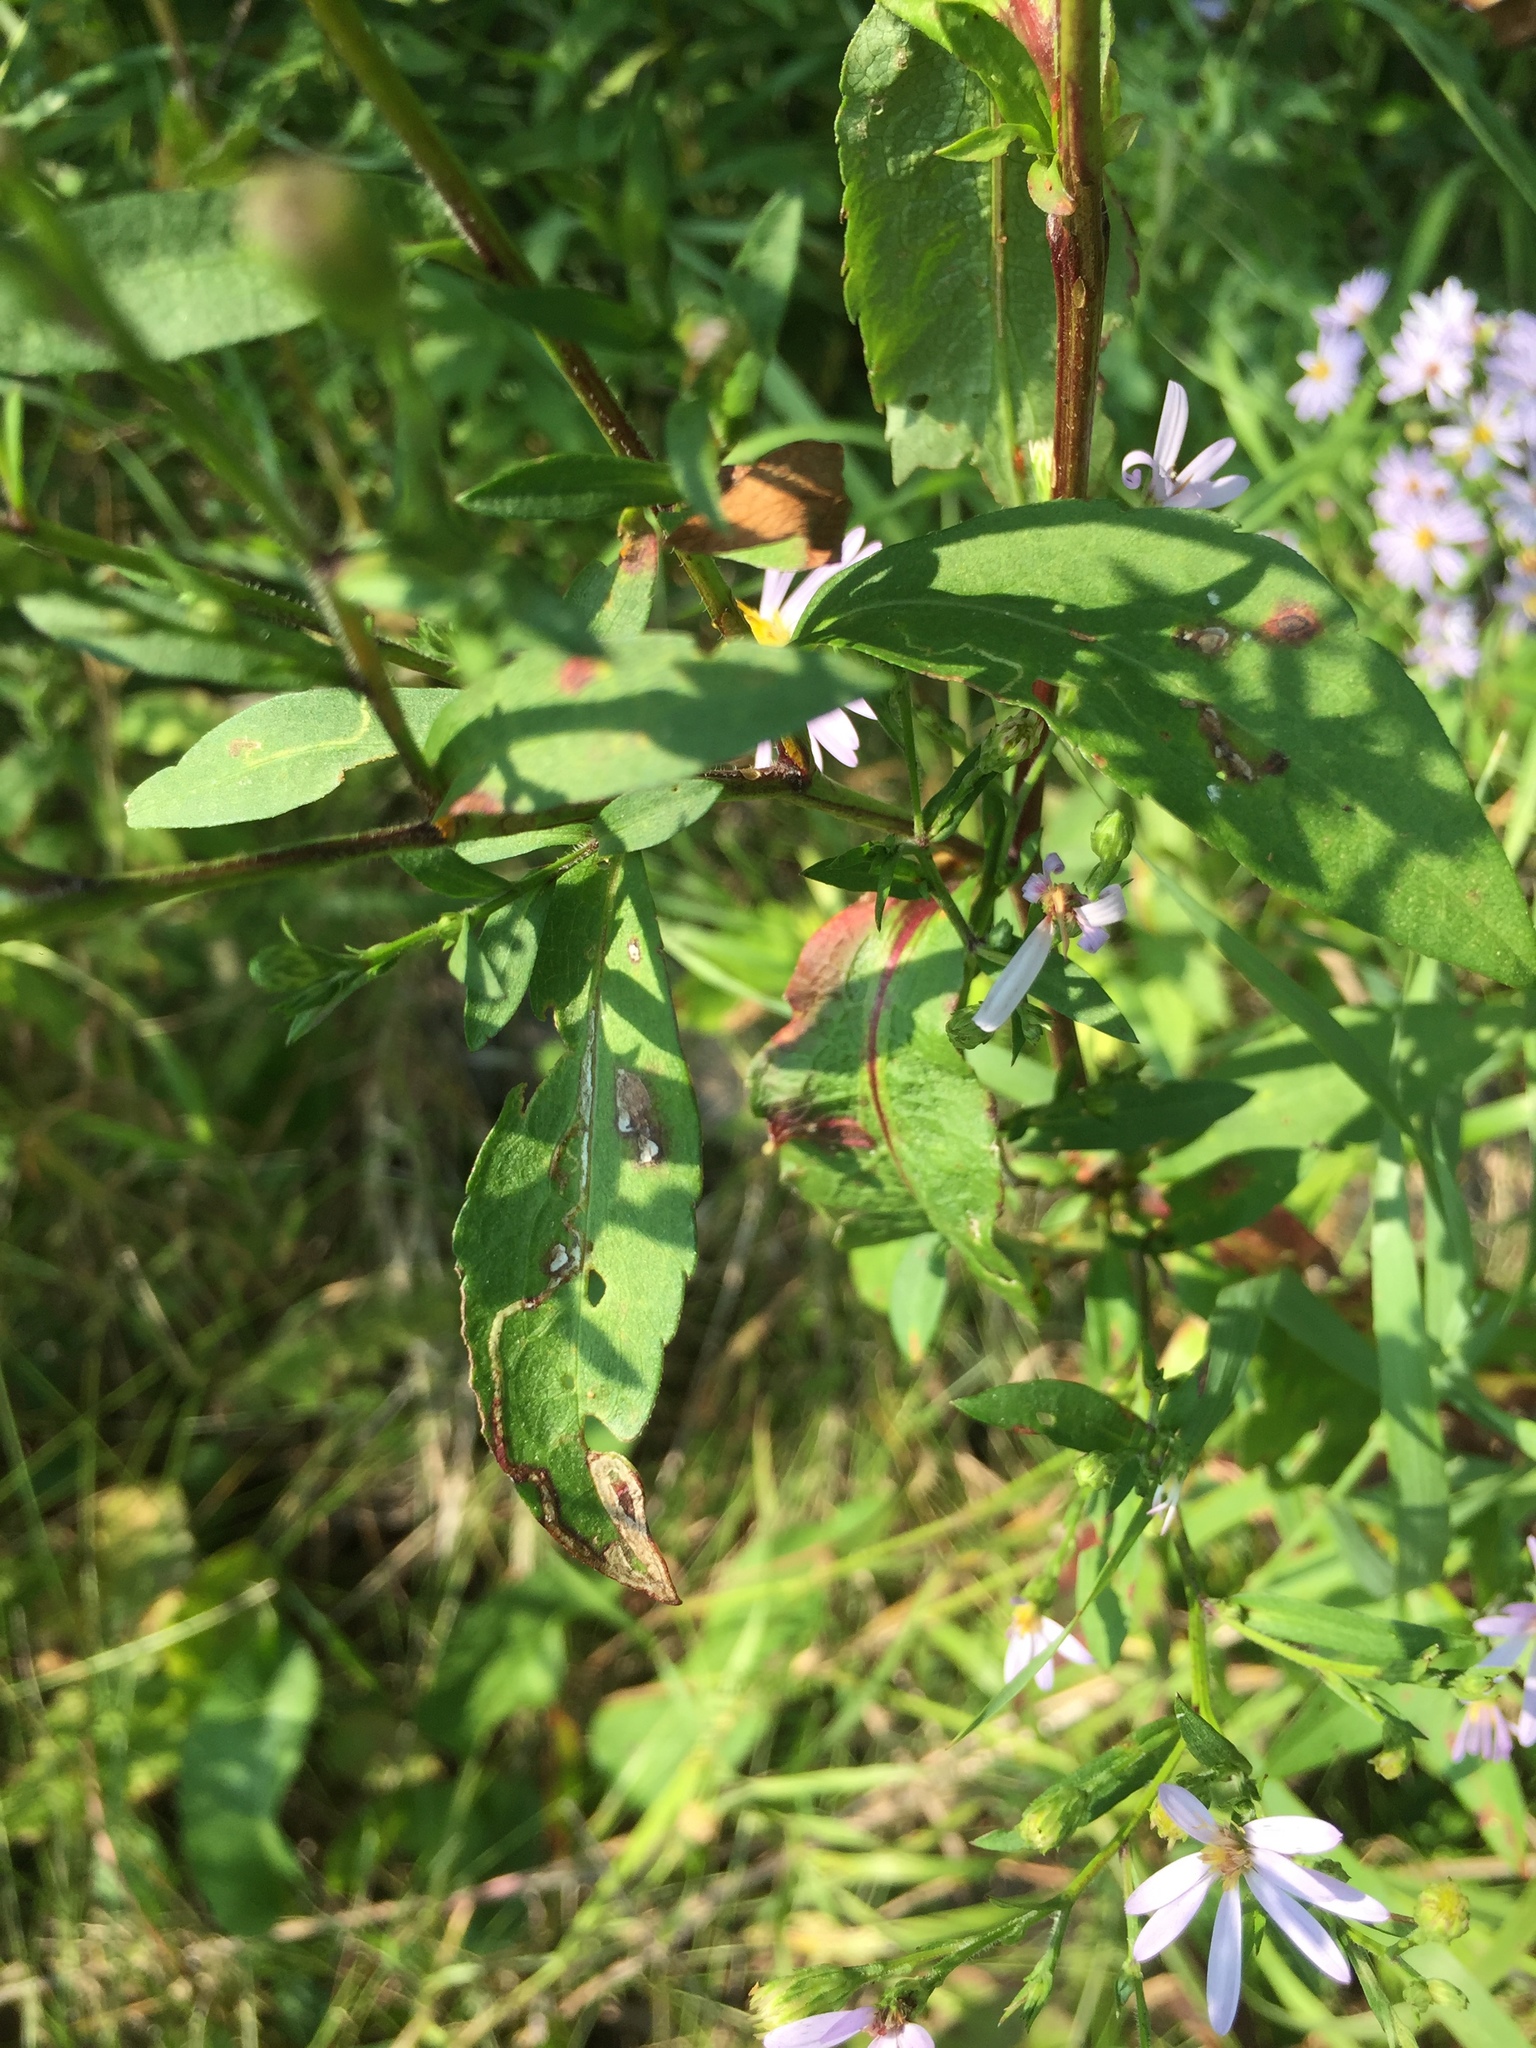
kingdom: Plantae
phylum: Tracheophyta
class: Magnoliopsida
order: Asterales
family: Asteraceae
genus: Symphyotrichum
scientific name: Symphyotrichum laeve
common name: Glaucous aster
